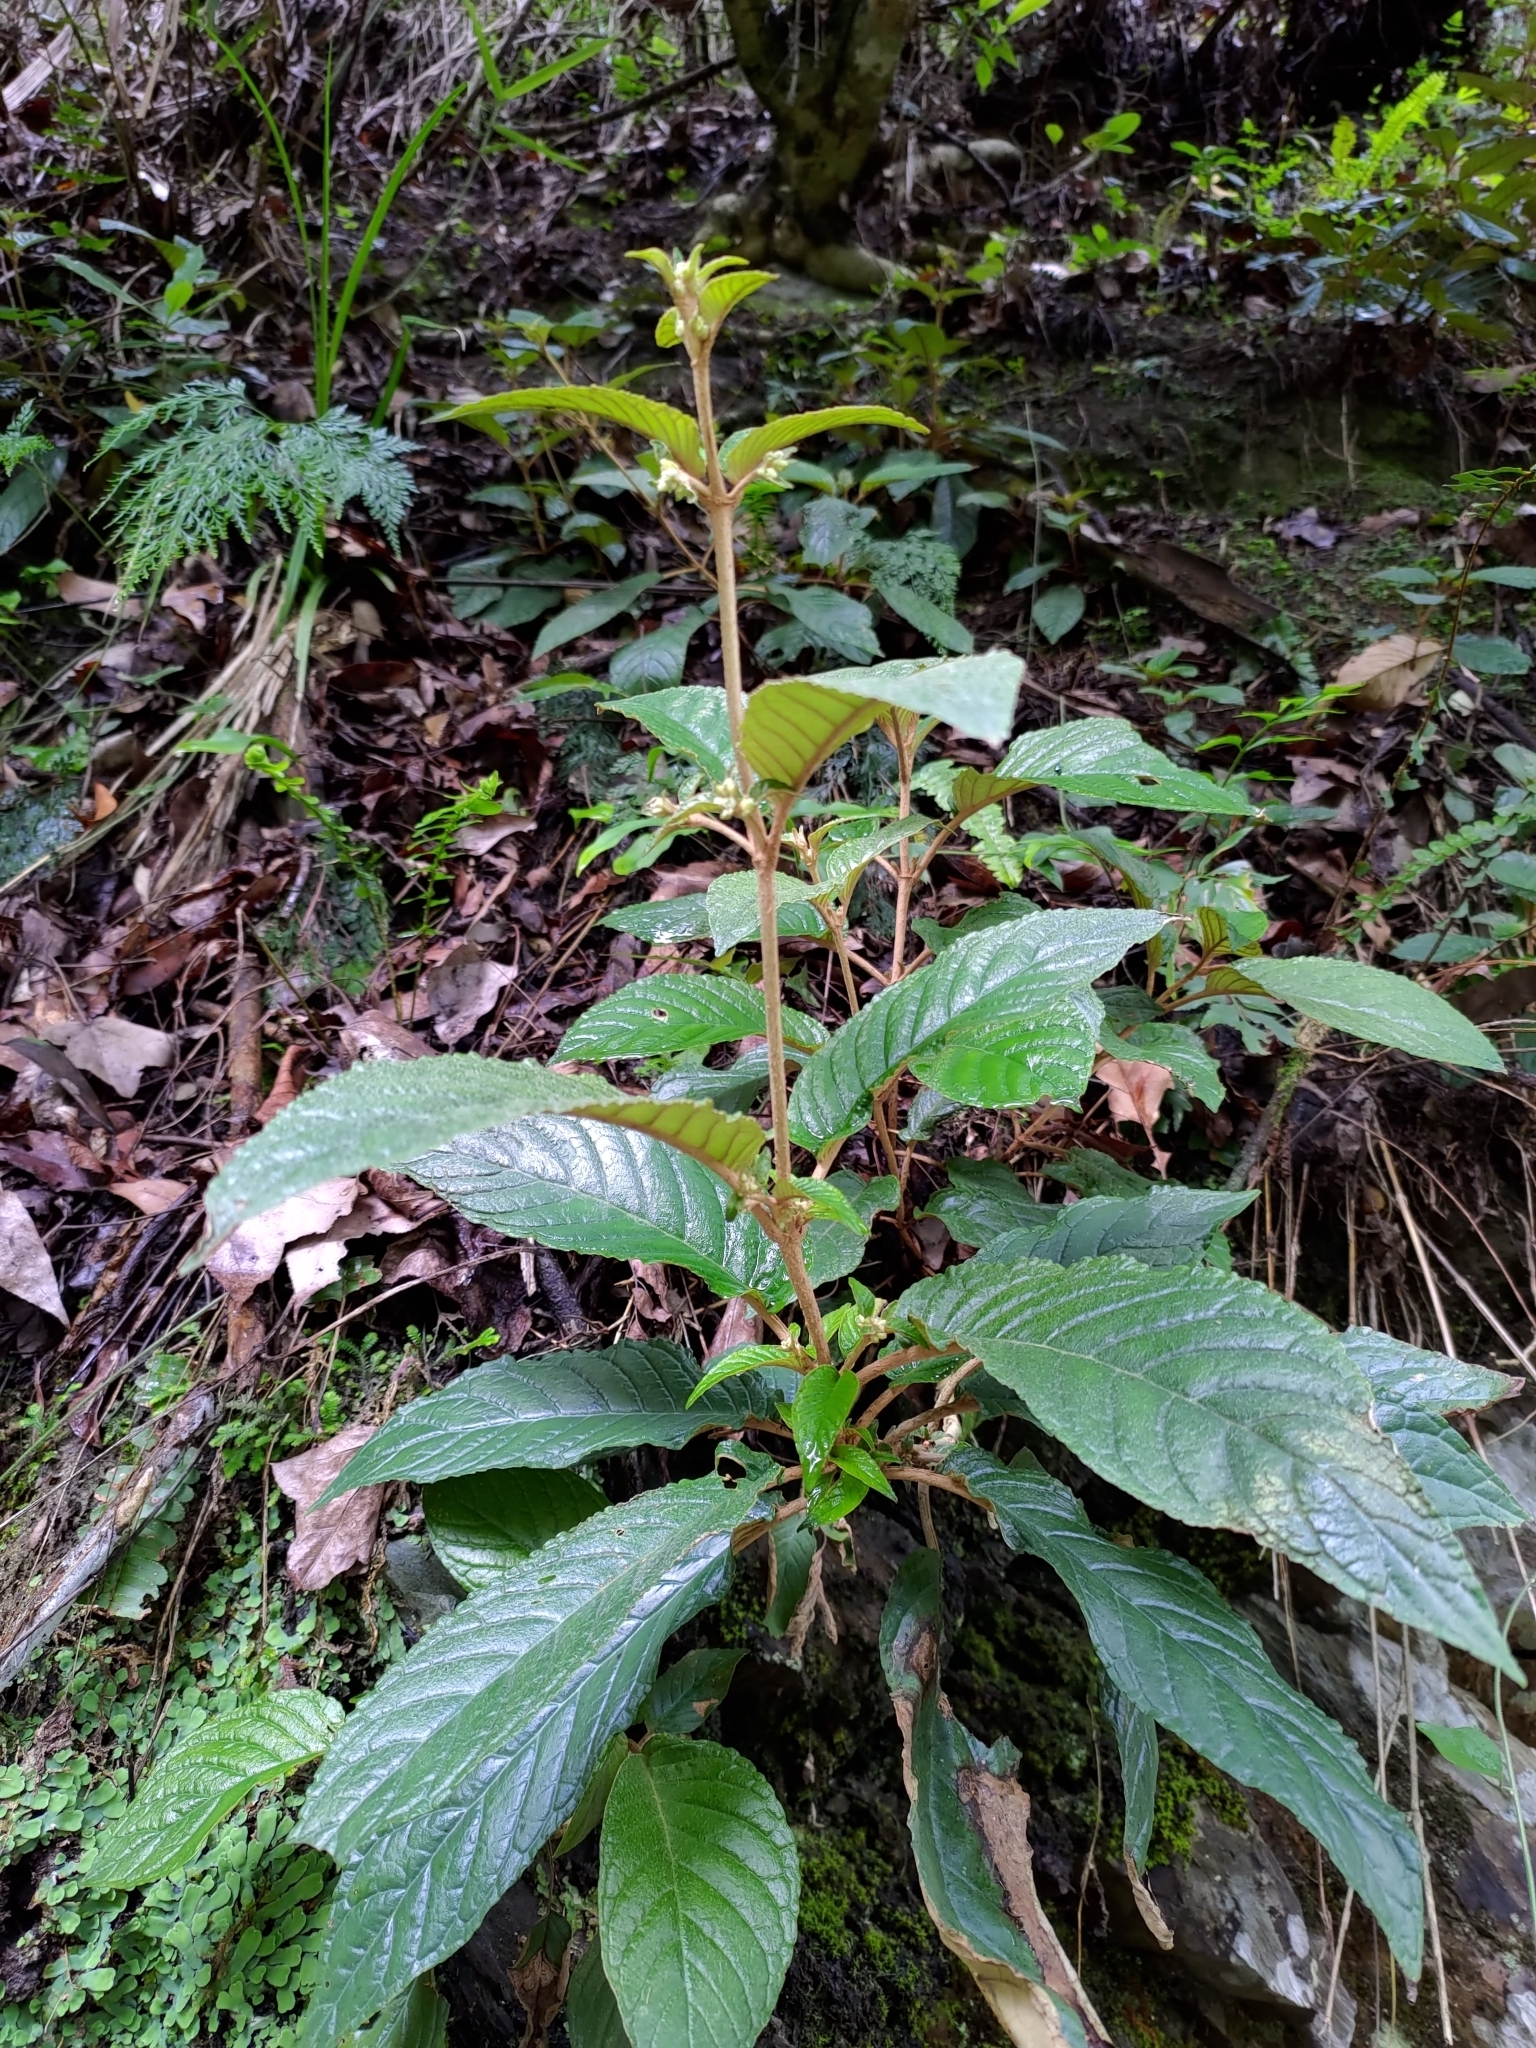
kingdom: Plantae
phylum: Tracheophyta
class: Magnoliopsida
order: Lamiales
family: Gesneriaceae
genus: Paraboea
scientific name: Paraboea swinhoei
